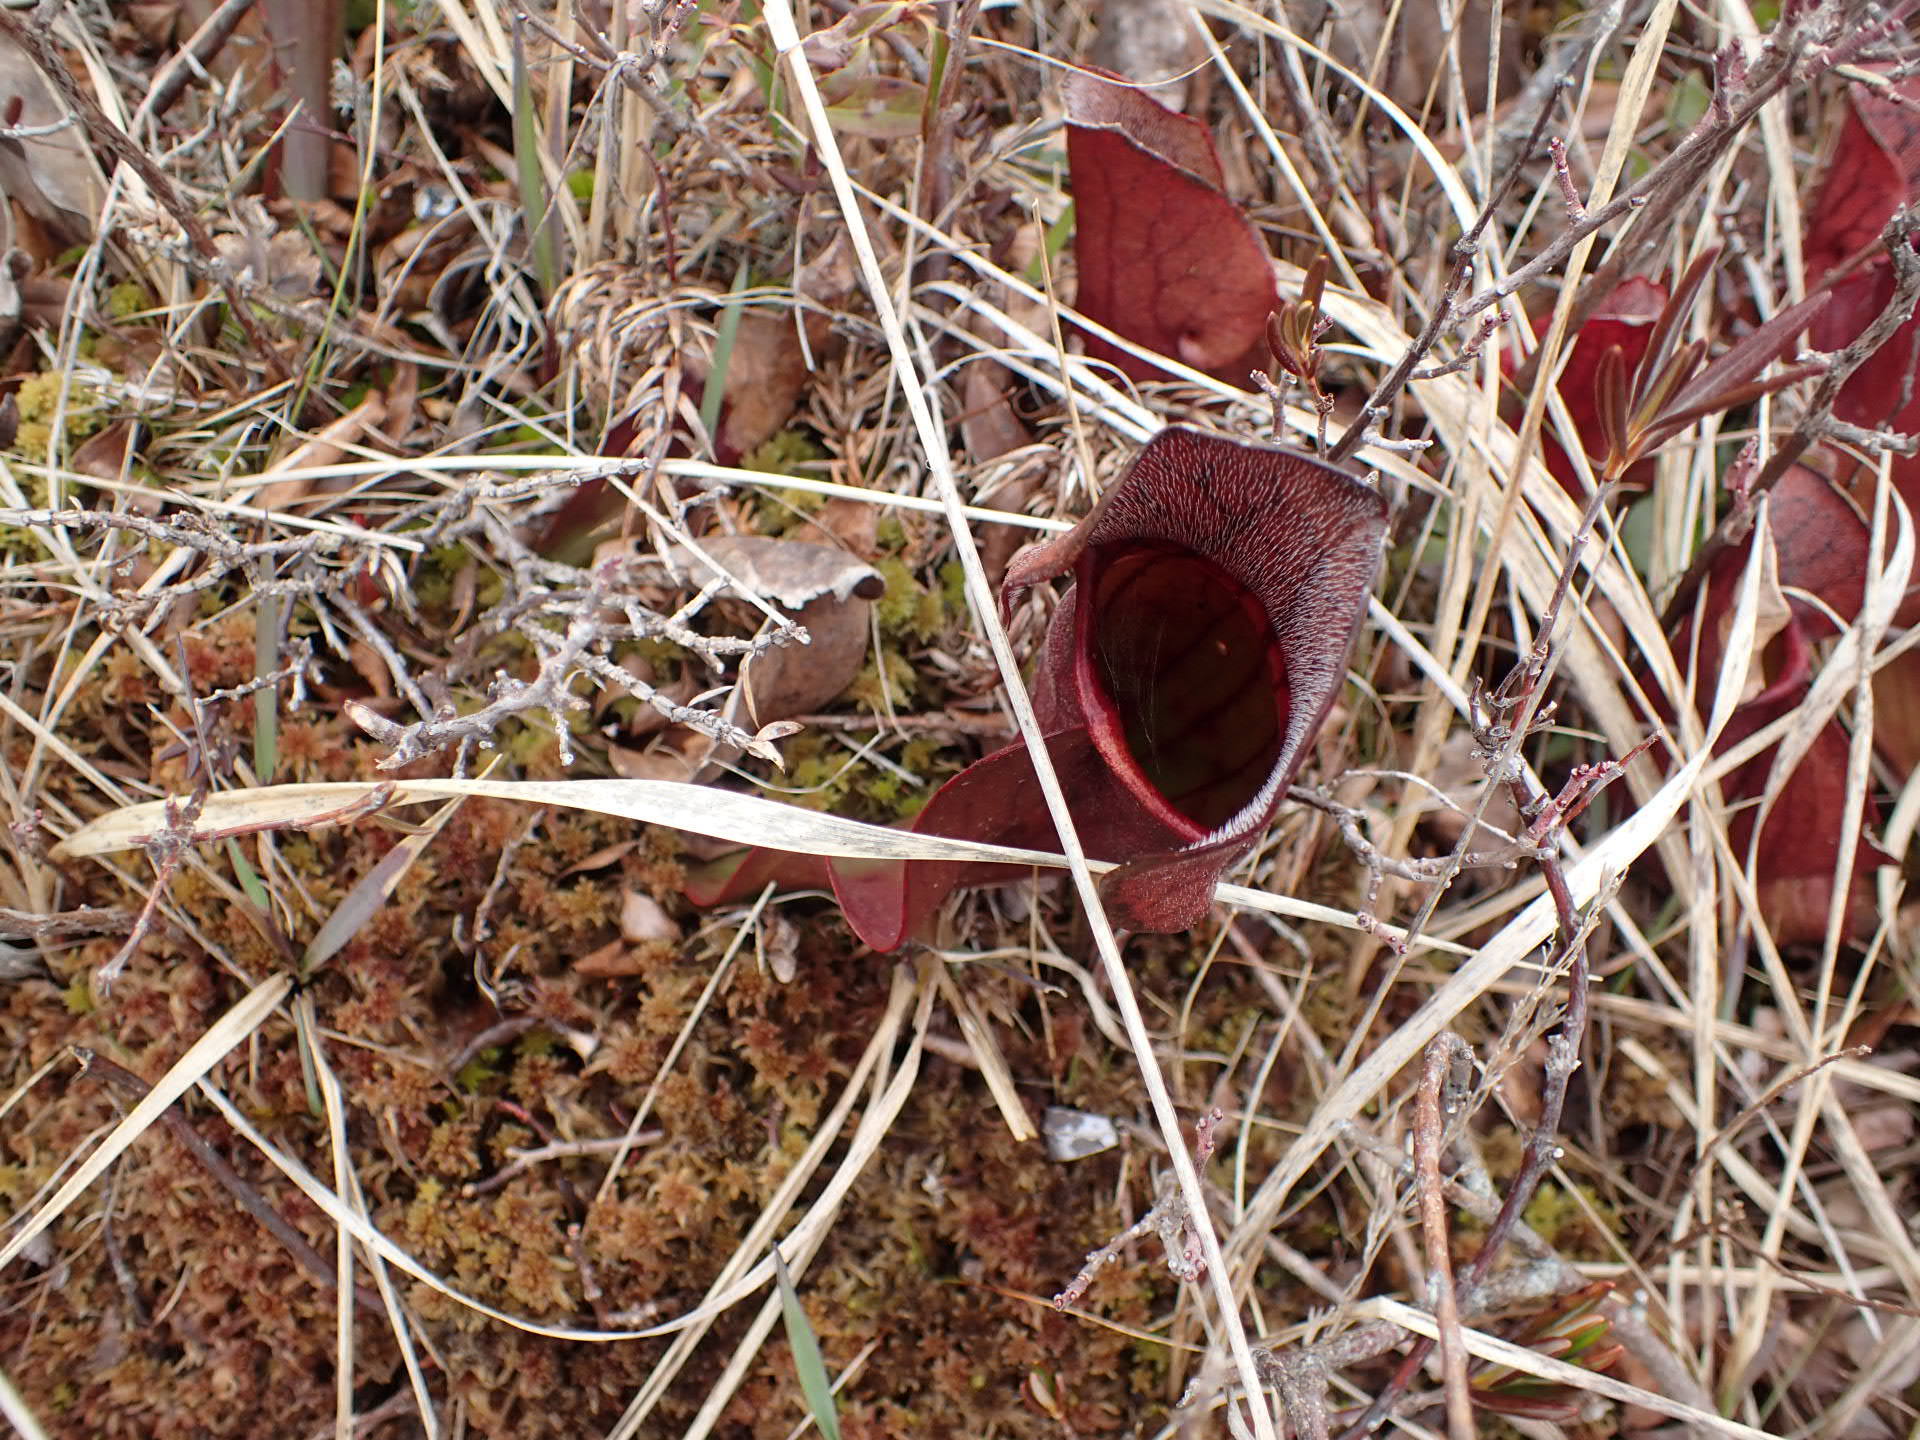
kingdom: Plantae
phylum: Tracheophyta
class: Magnoliopsida
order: Ericales
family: Sarraceniaceae
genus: Sarracenia
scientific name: Sarracenia purpurea
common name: Pitcherplant
